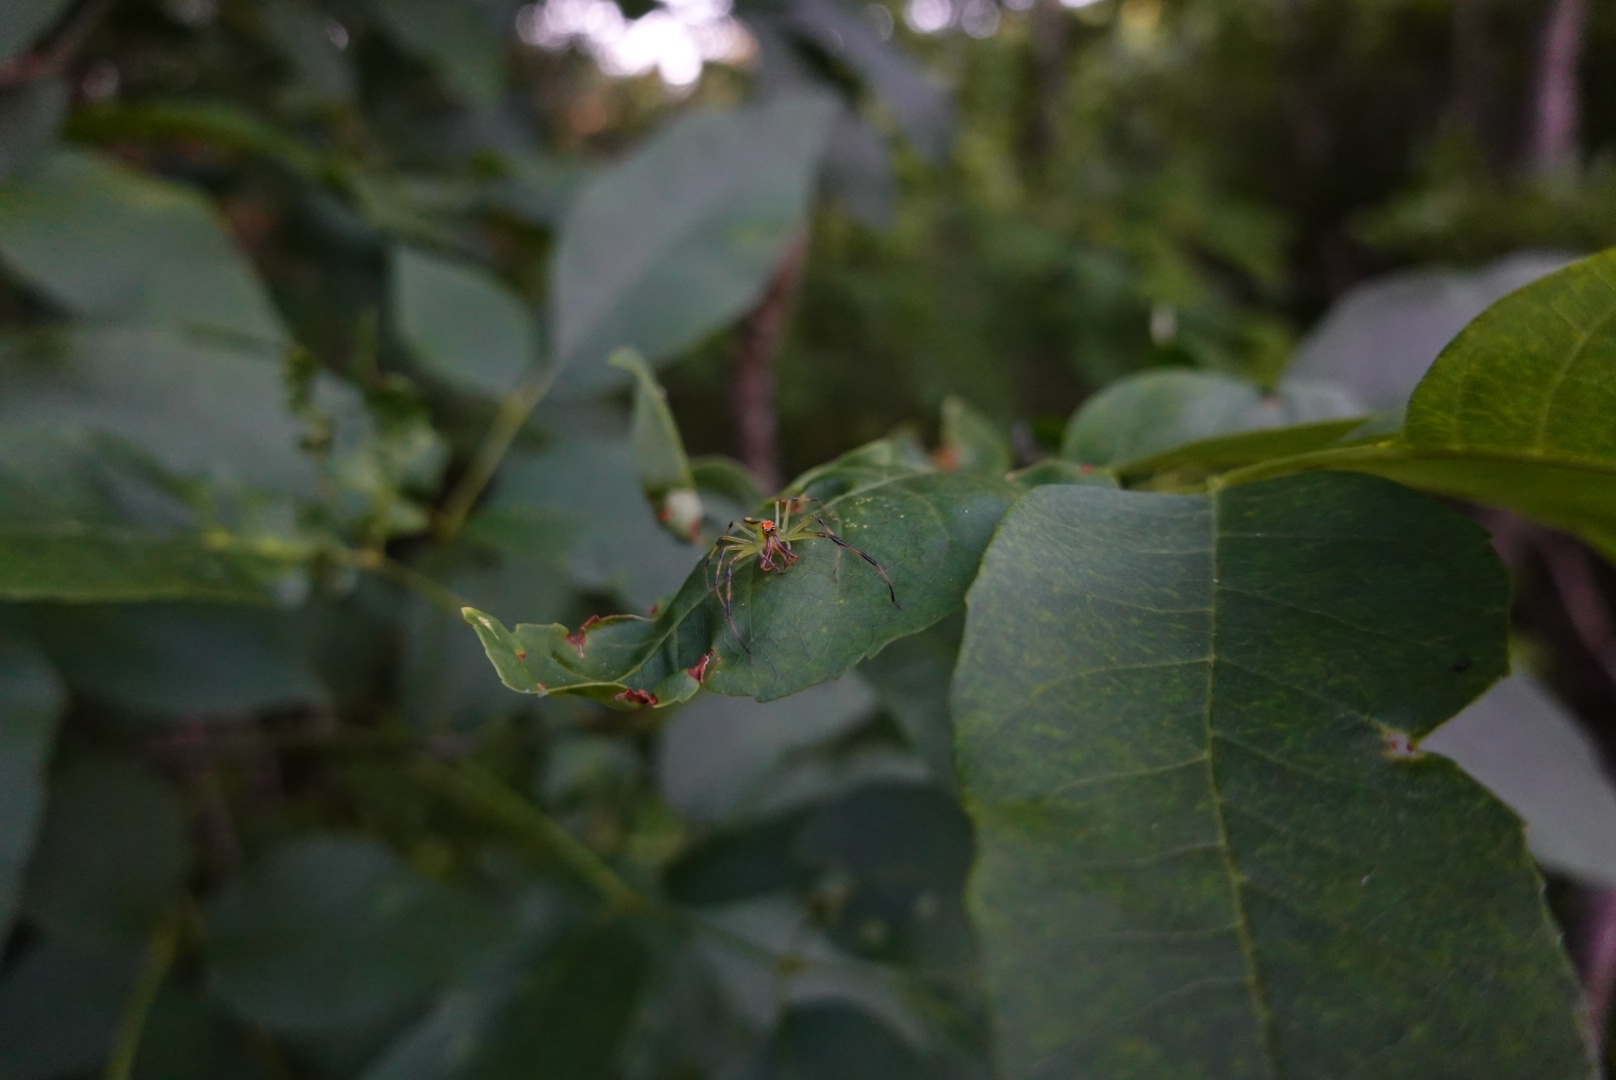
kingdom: Animalia
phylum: Arthropoda
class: Arachnida
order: Araneae
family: Salticidae
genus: Lyssomanes
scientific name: Lyssomanes viridis
